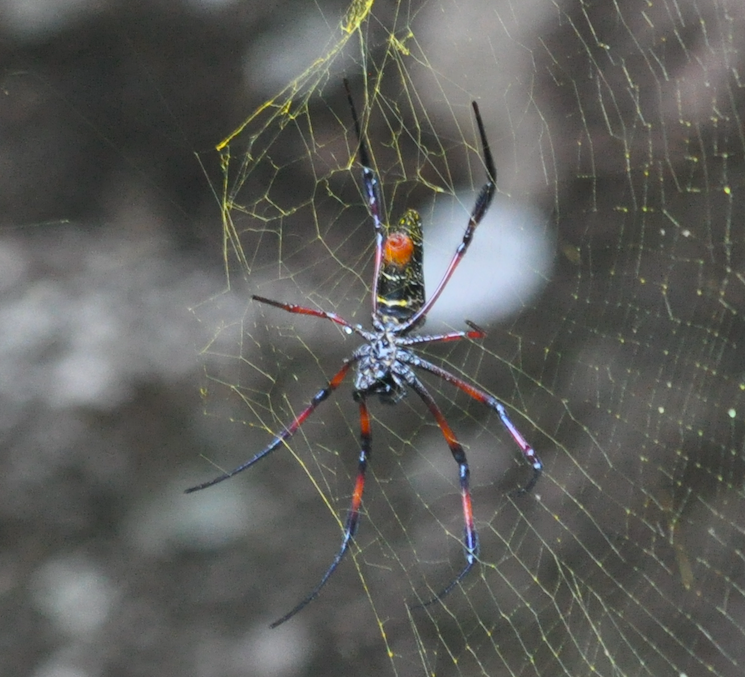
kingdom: Animalia
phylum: Arthropoda
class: Arachnida
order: Araneae
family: Araneidae
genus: Trichonephila
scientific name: Trichonephila inaurata
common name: Red-legged golden orb weaver
